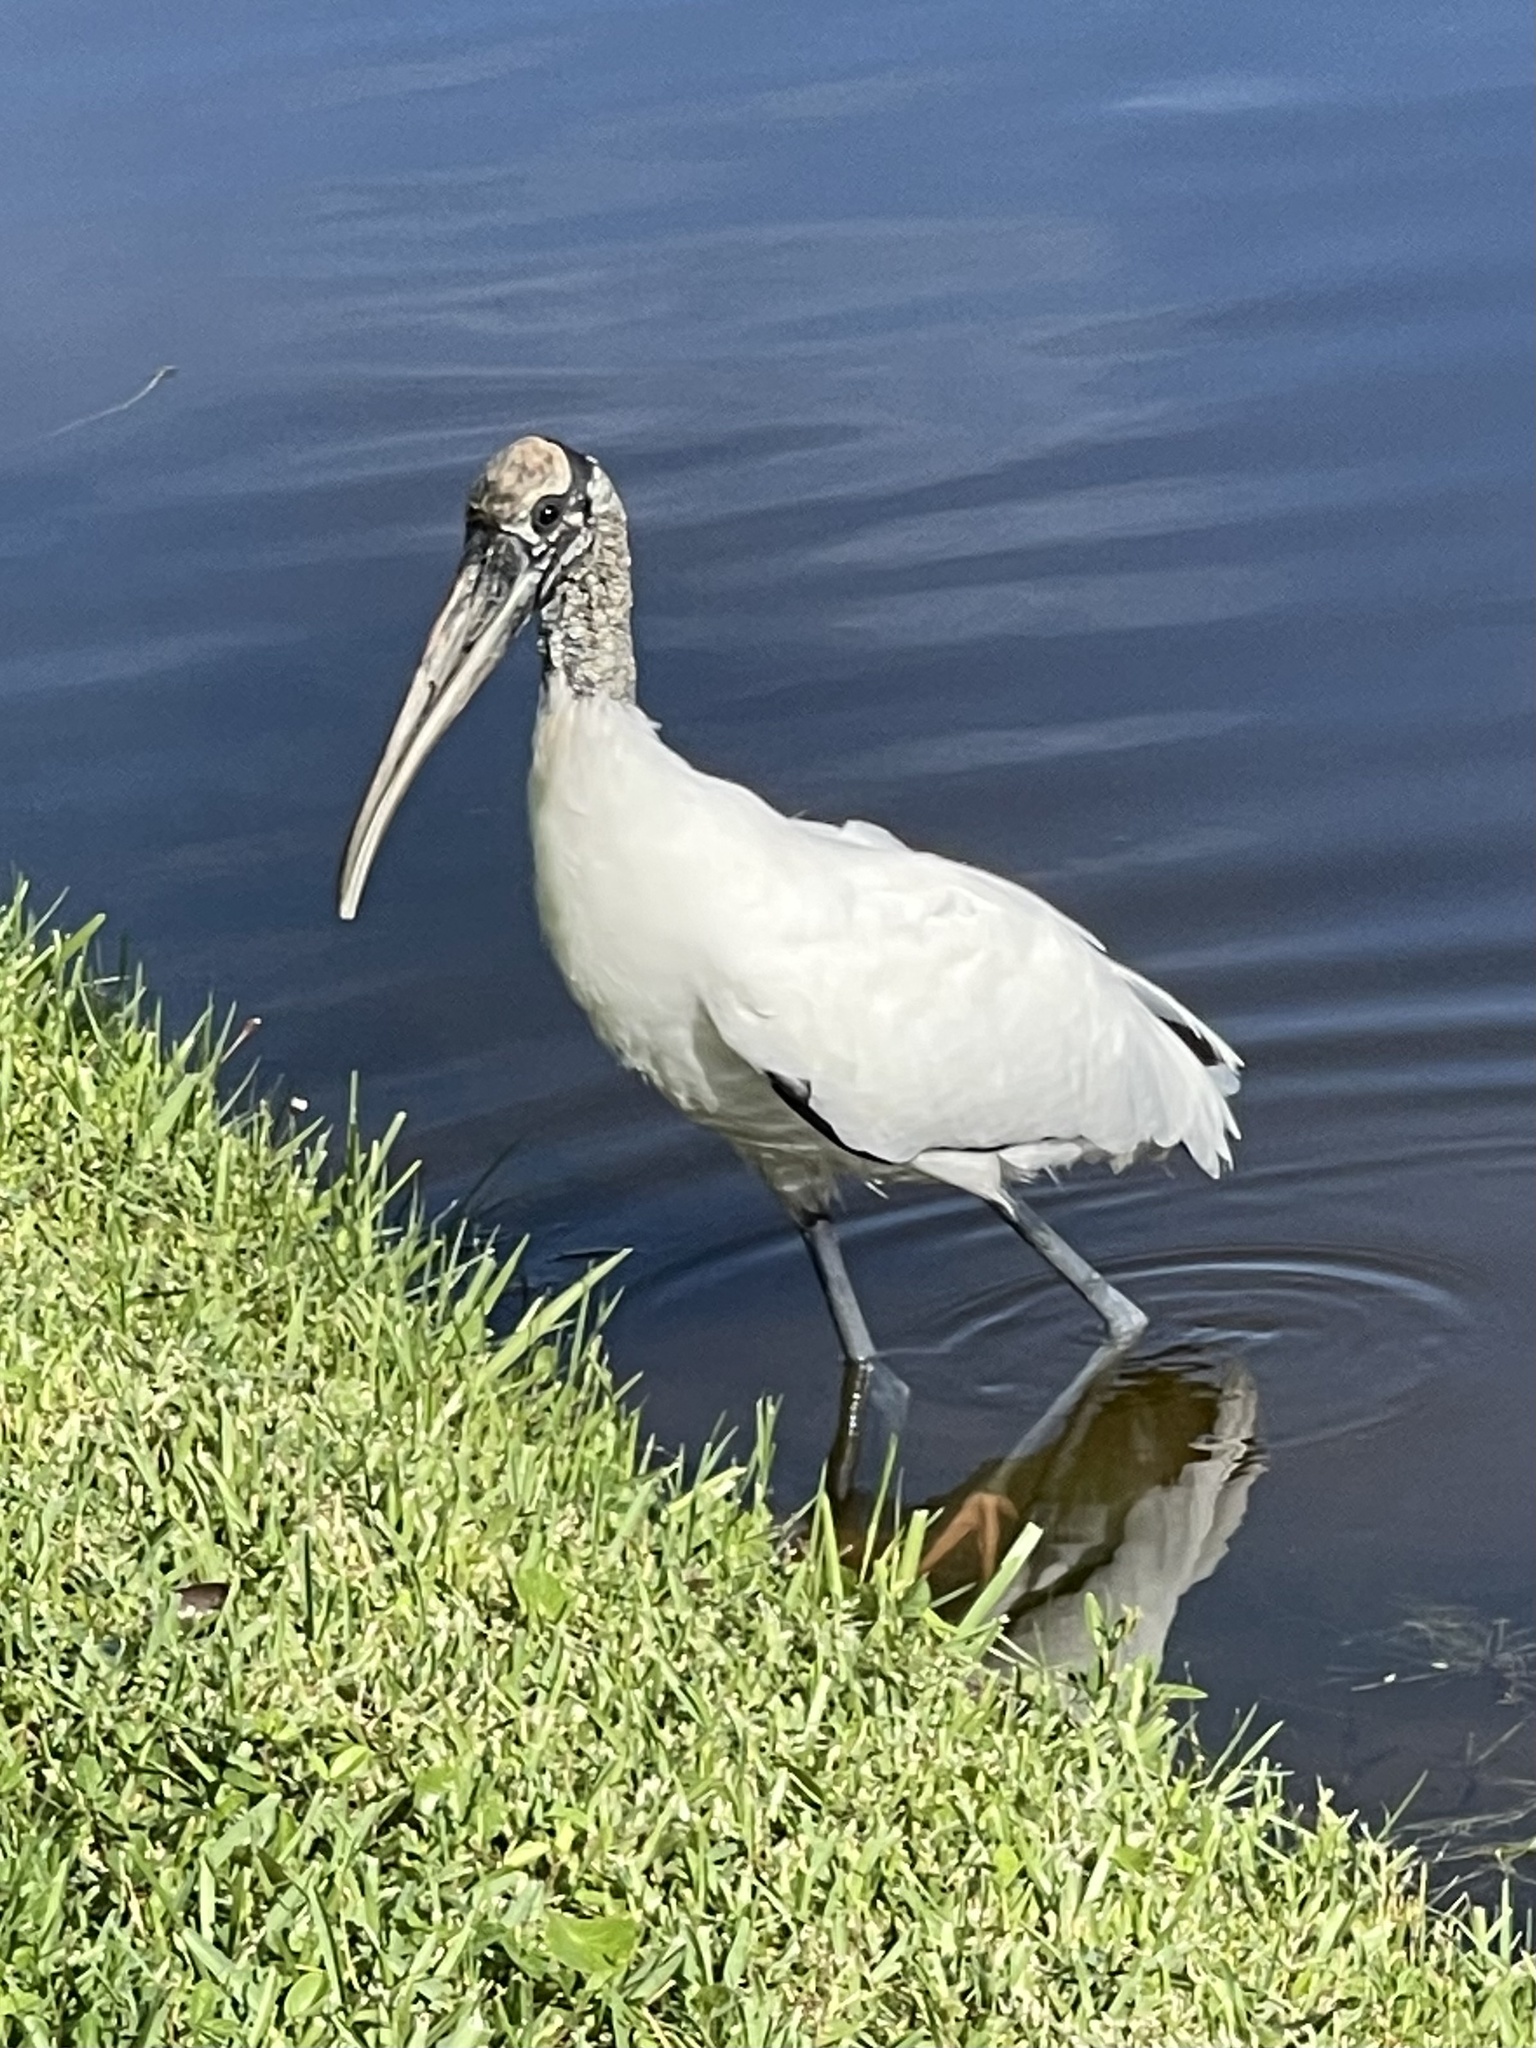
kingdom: Animalia
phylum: Chordata
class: Aves
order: Ciconiiformes
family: Ciconiidae
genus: Mycteria
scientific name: Mycteria americana
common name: Wood stork
